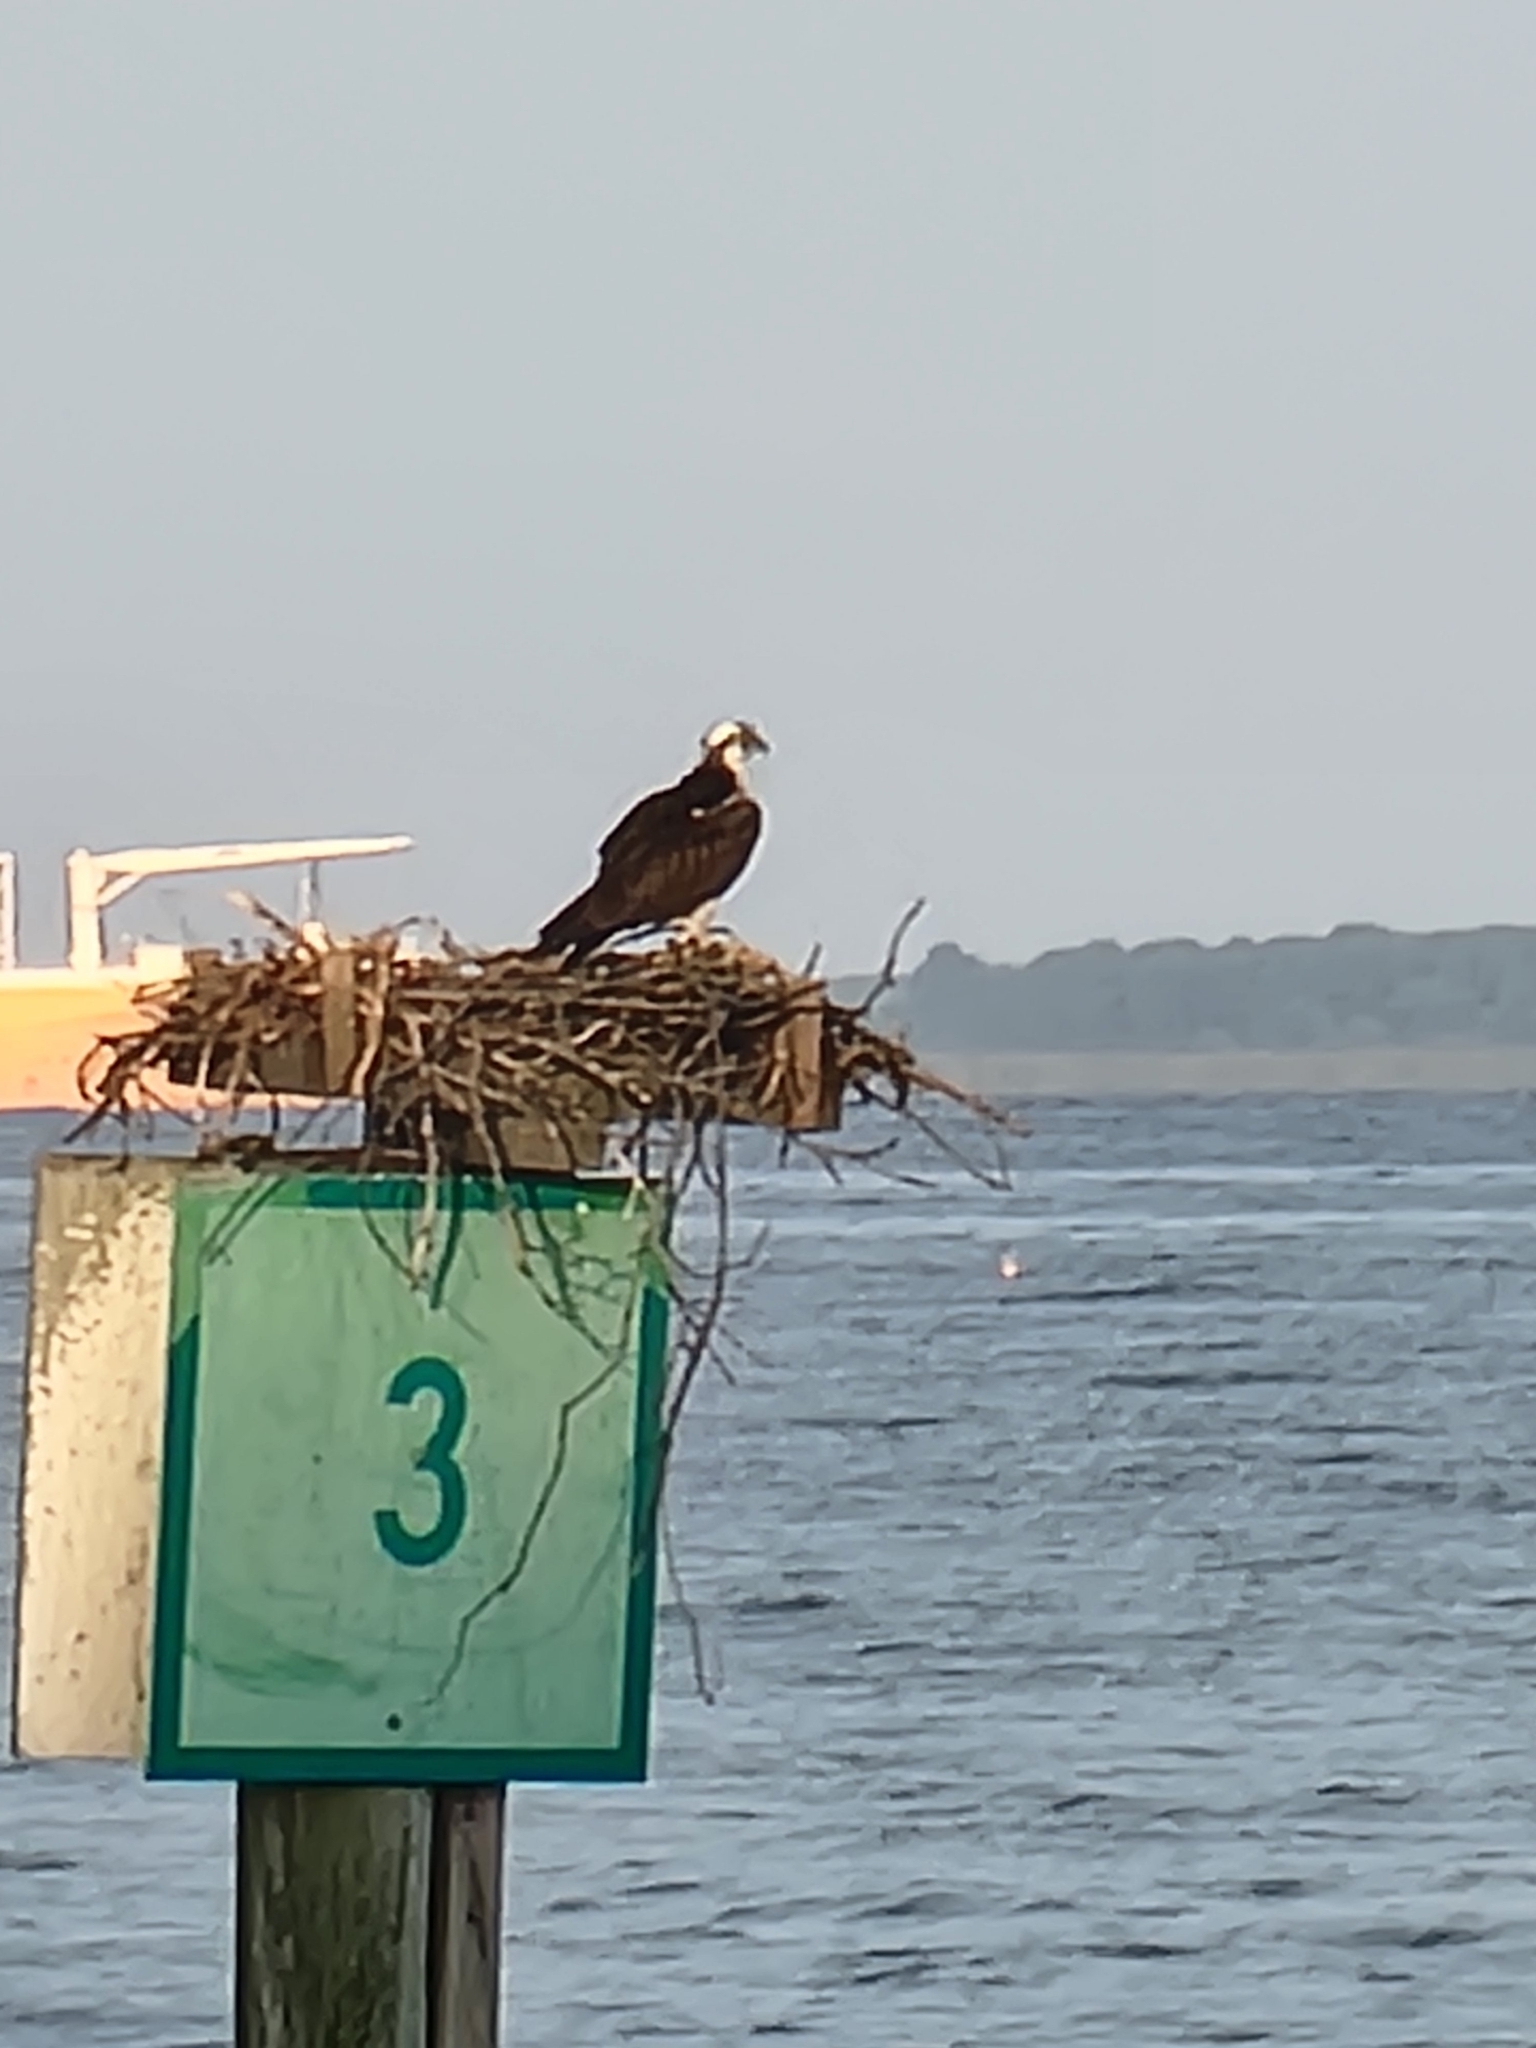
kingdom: Animalia
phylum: Chordata
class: Aves
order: Accipitriformes
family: Pandionidae
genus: Pandion
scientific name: Pandion haliaetus
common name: Osprey
